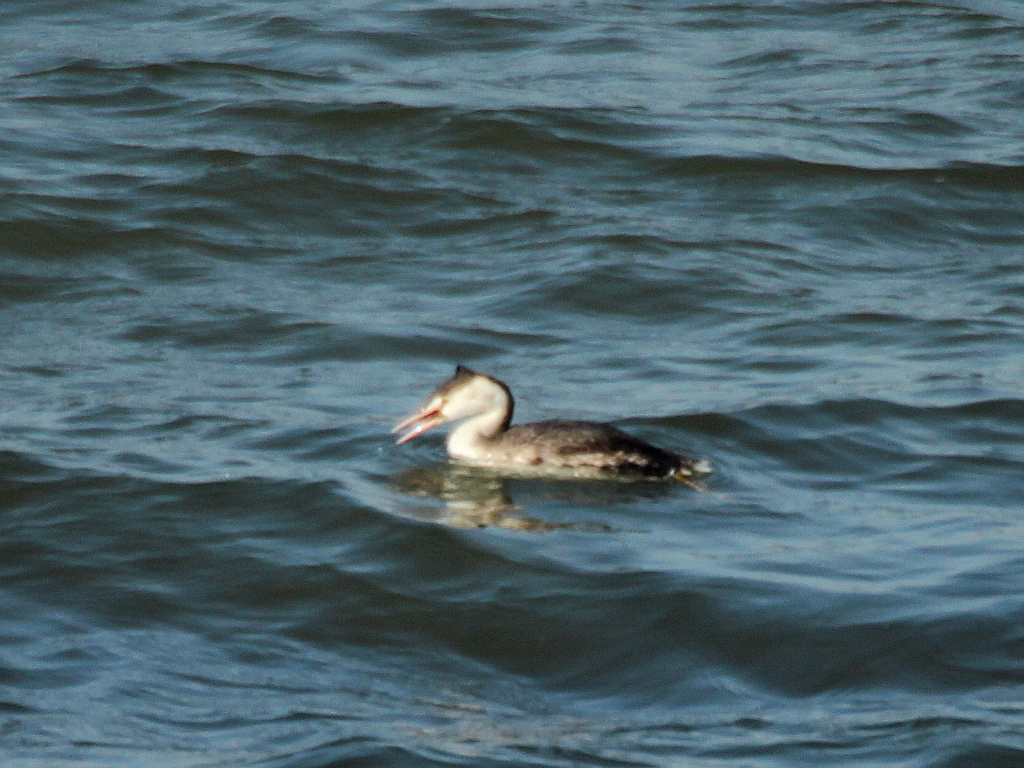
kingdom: Animalia
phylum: Chordata
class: Aves
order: Podicipediformes
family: Podicipedidae
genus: Podiceps
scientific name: Podiceps cristatus
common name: Great crested grebe
